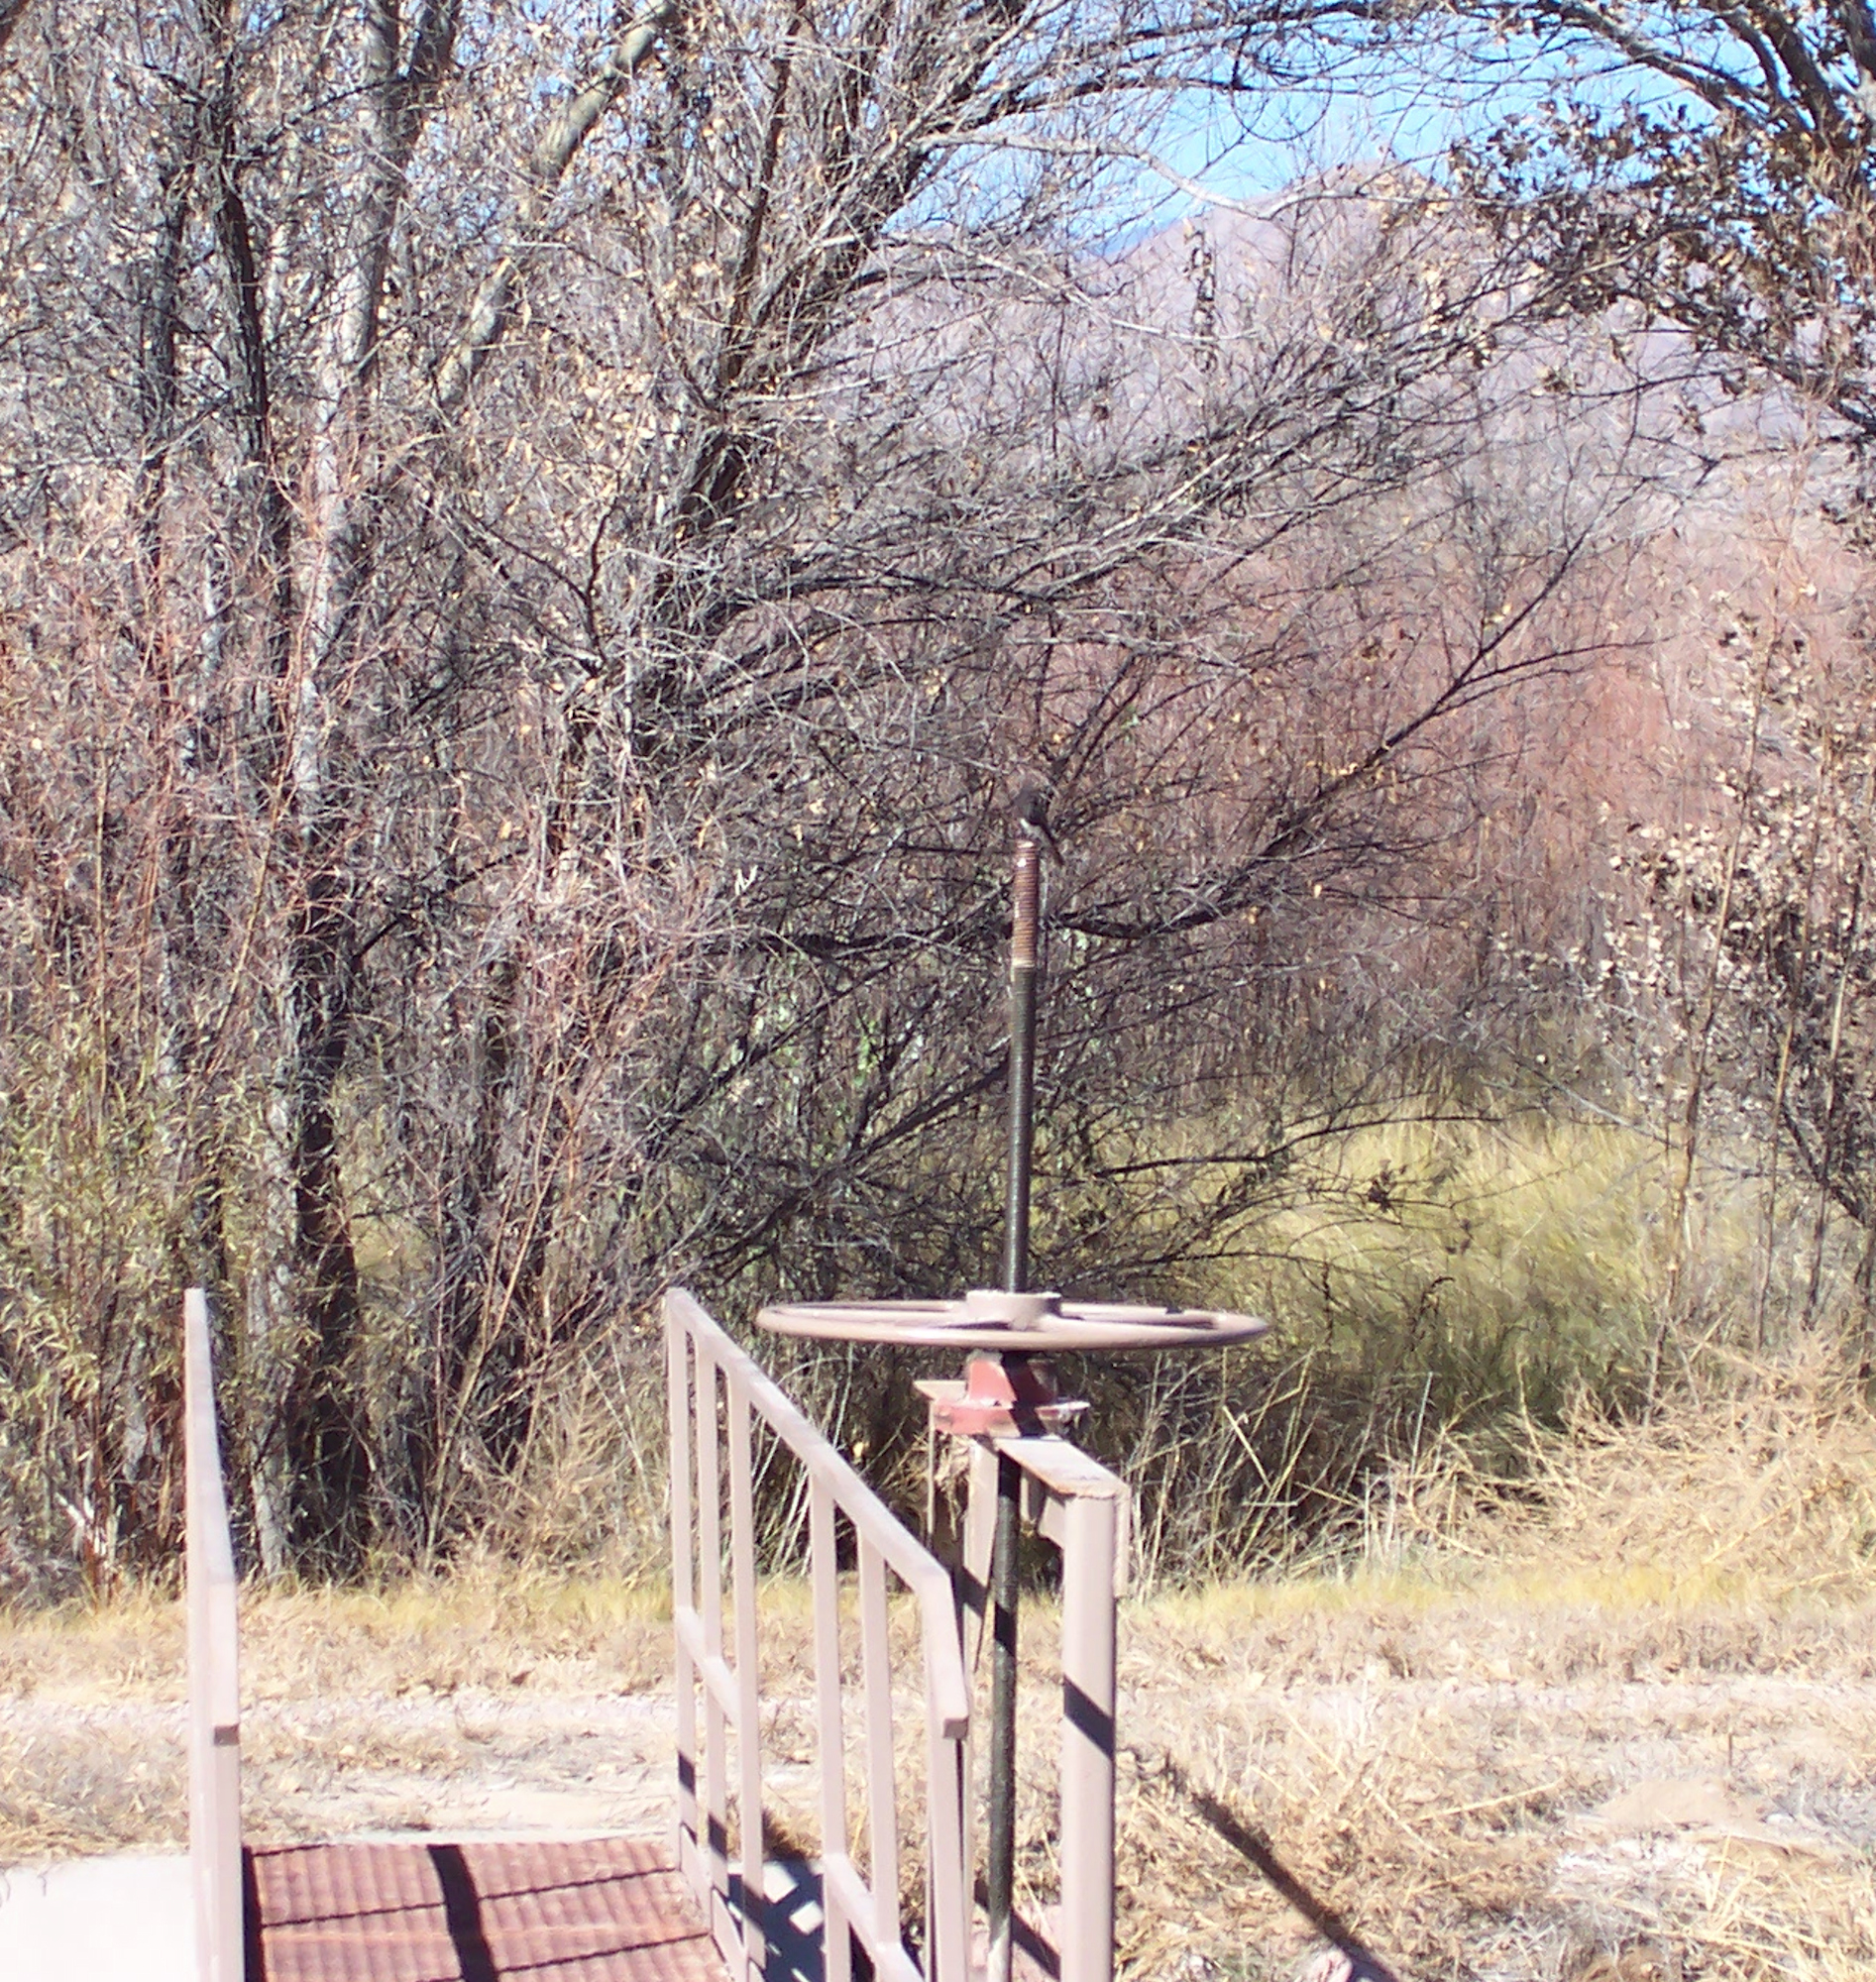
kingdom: Animalia
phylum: Chordata
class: Aves
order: Passeriformes
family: Tyrannidae
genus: Sayornis
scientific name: Sayornis nigricans
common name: Black phoebe
